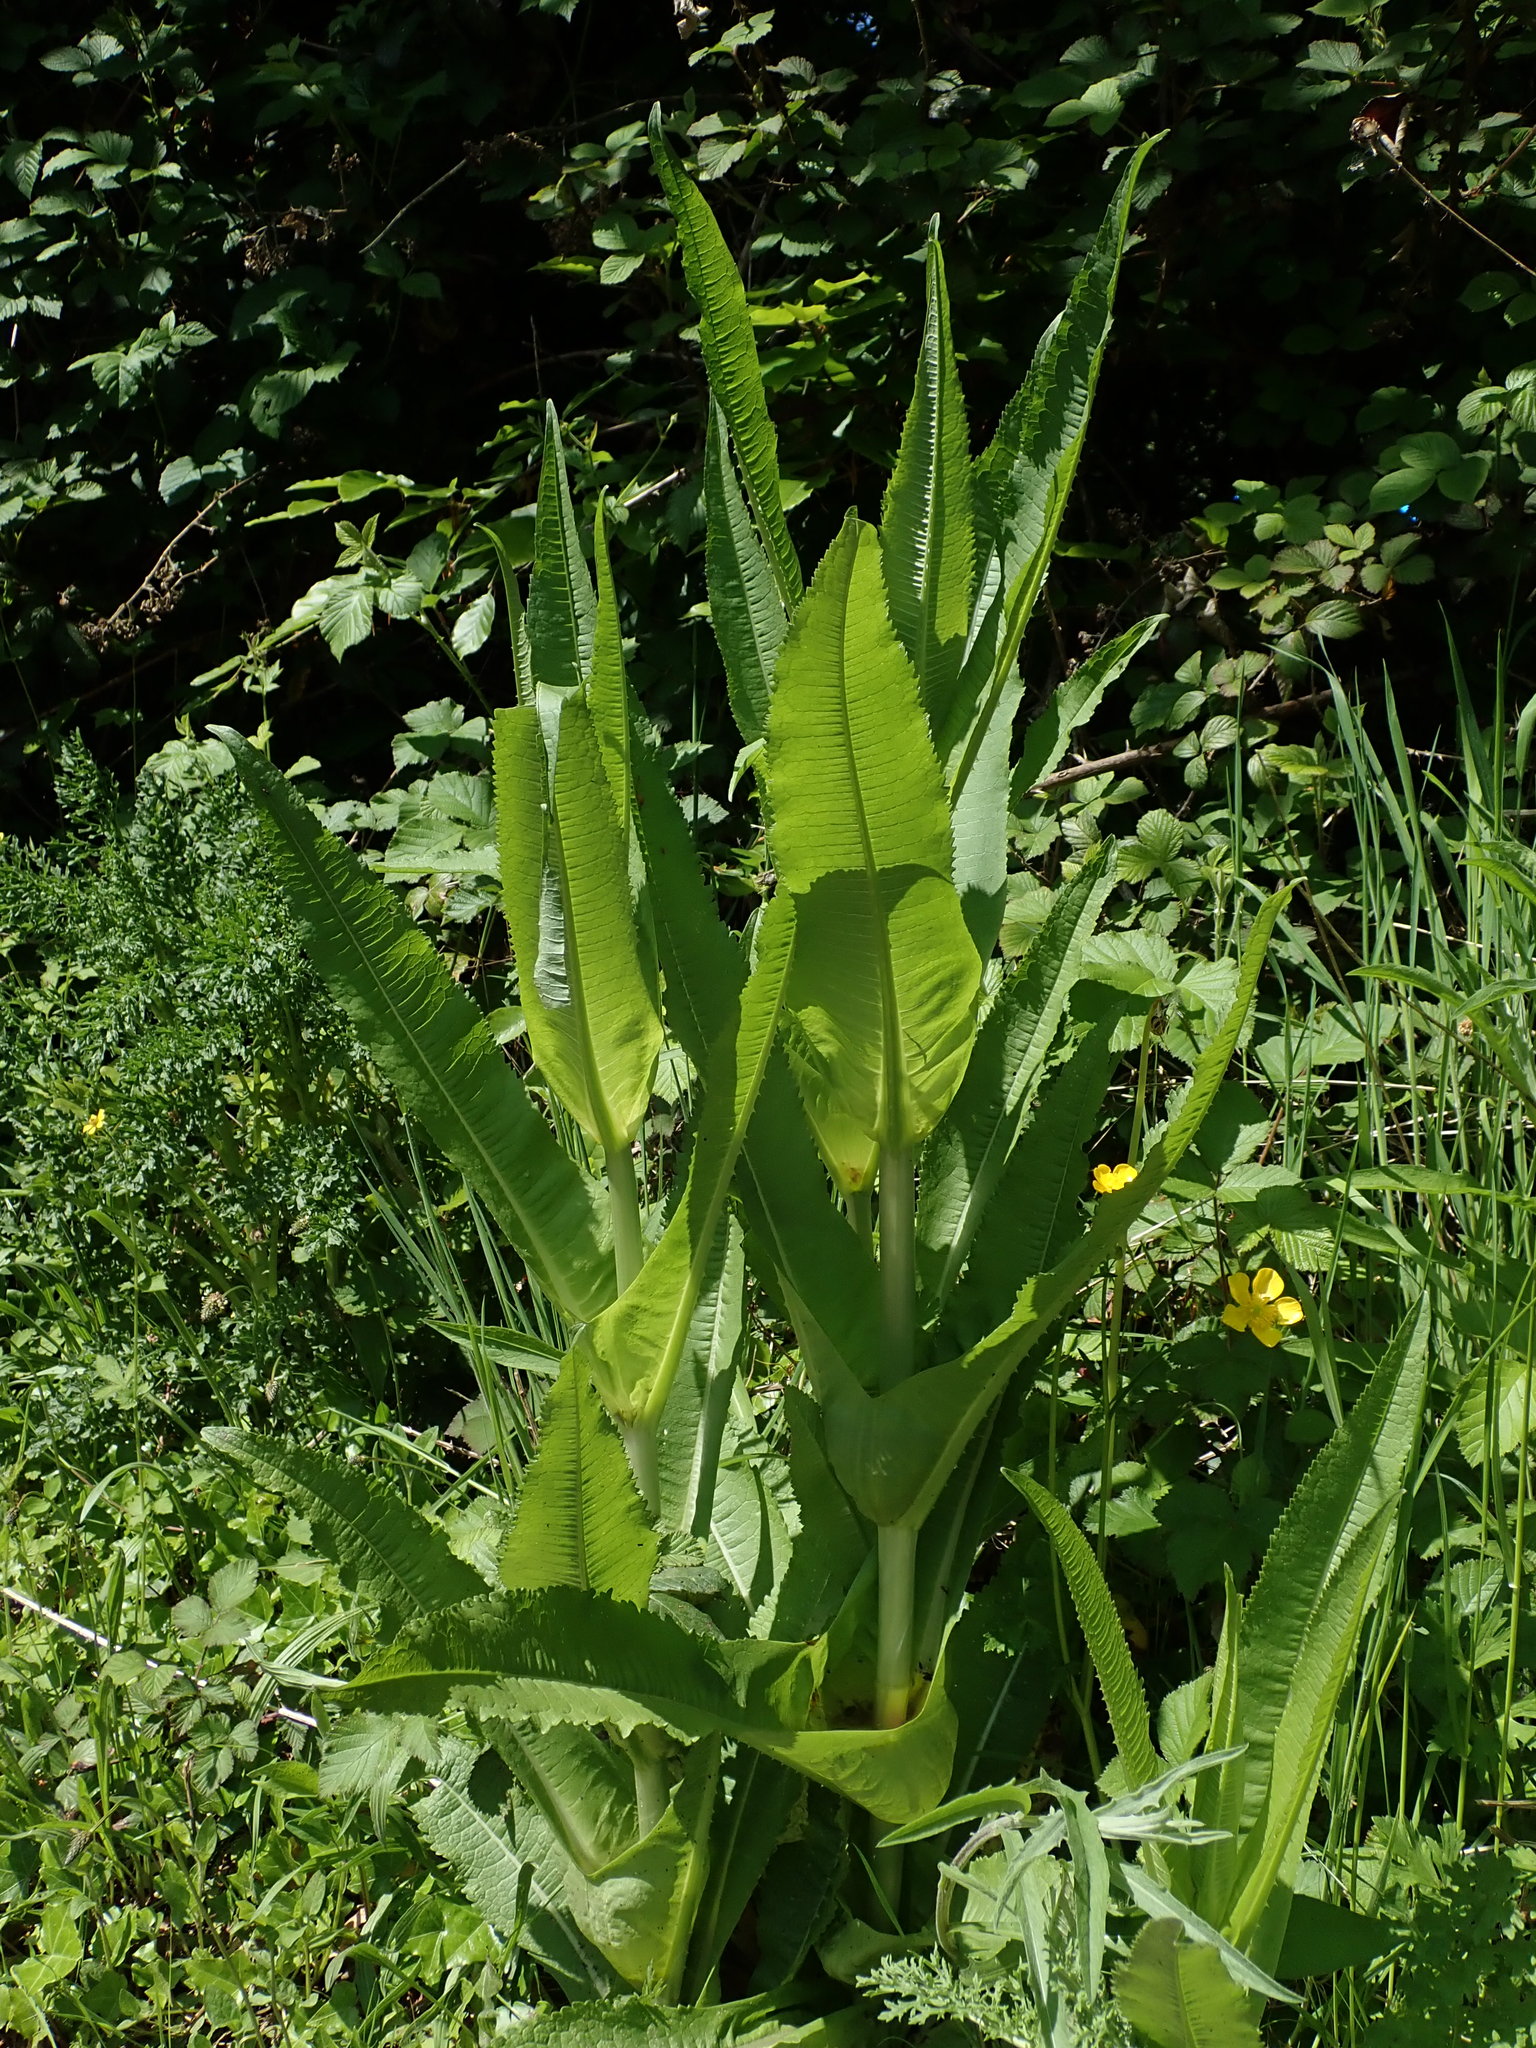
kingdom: Plantae
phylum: Tracheophyta
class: Magnoliopsida
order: Dipsacales
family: Caprifoliaceae
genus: Dipsacus
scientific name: Dipsacus fullonum
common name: Teasel
